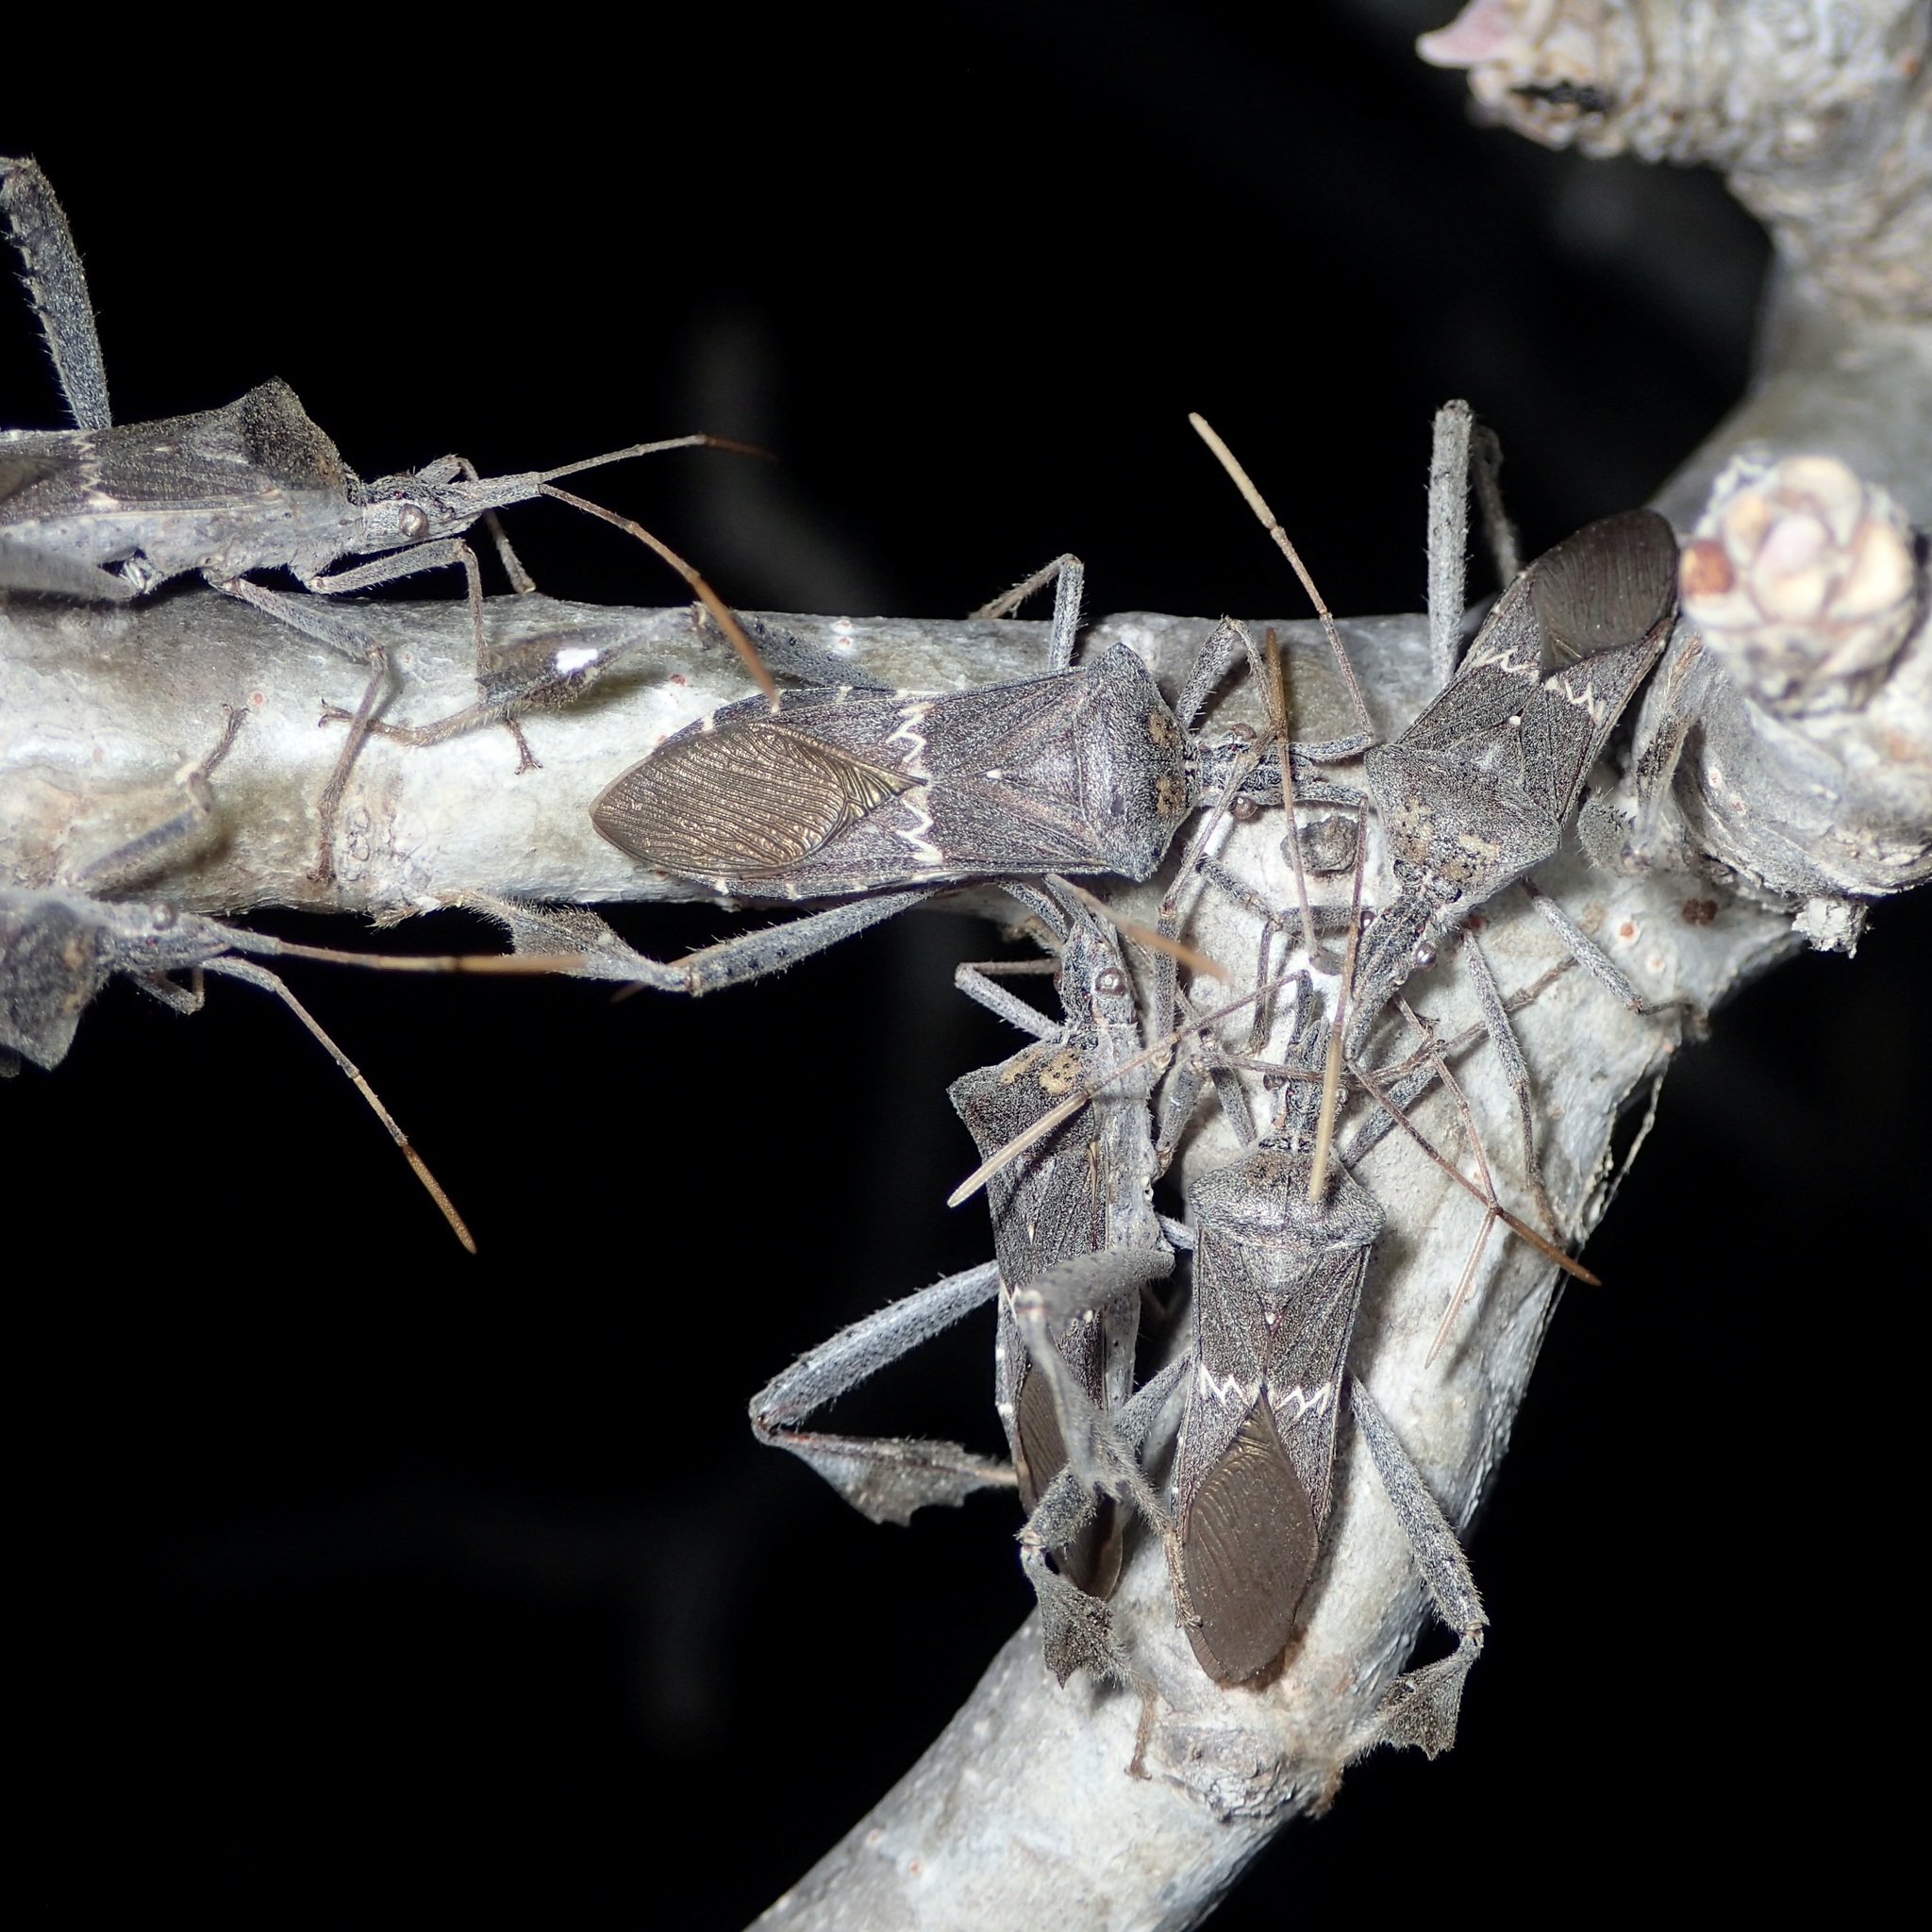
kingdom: Animalia
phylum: Arthropoda
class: Insecta
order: Hemiptera
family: Coreidae
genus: Leptoglossus
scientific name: Leptoglossus zonatus
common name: Large-legged bug
